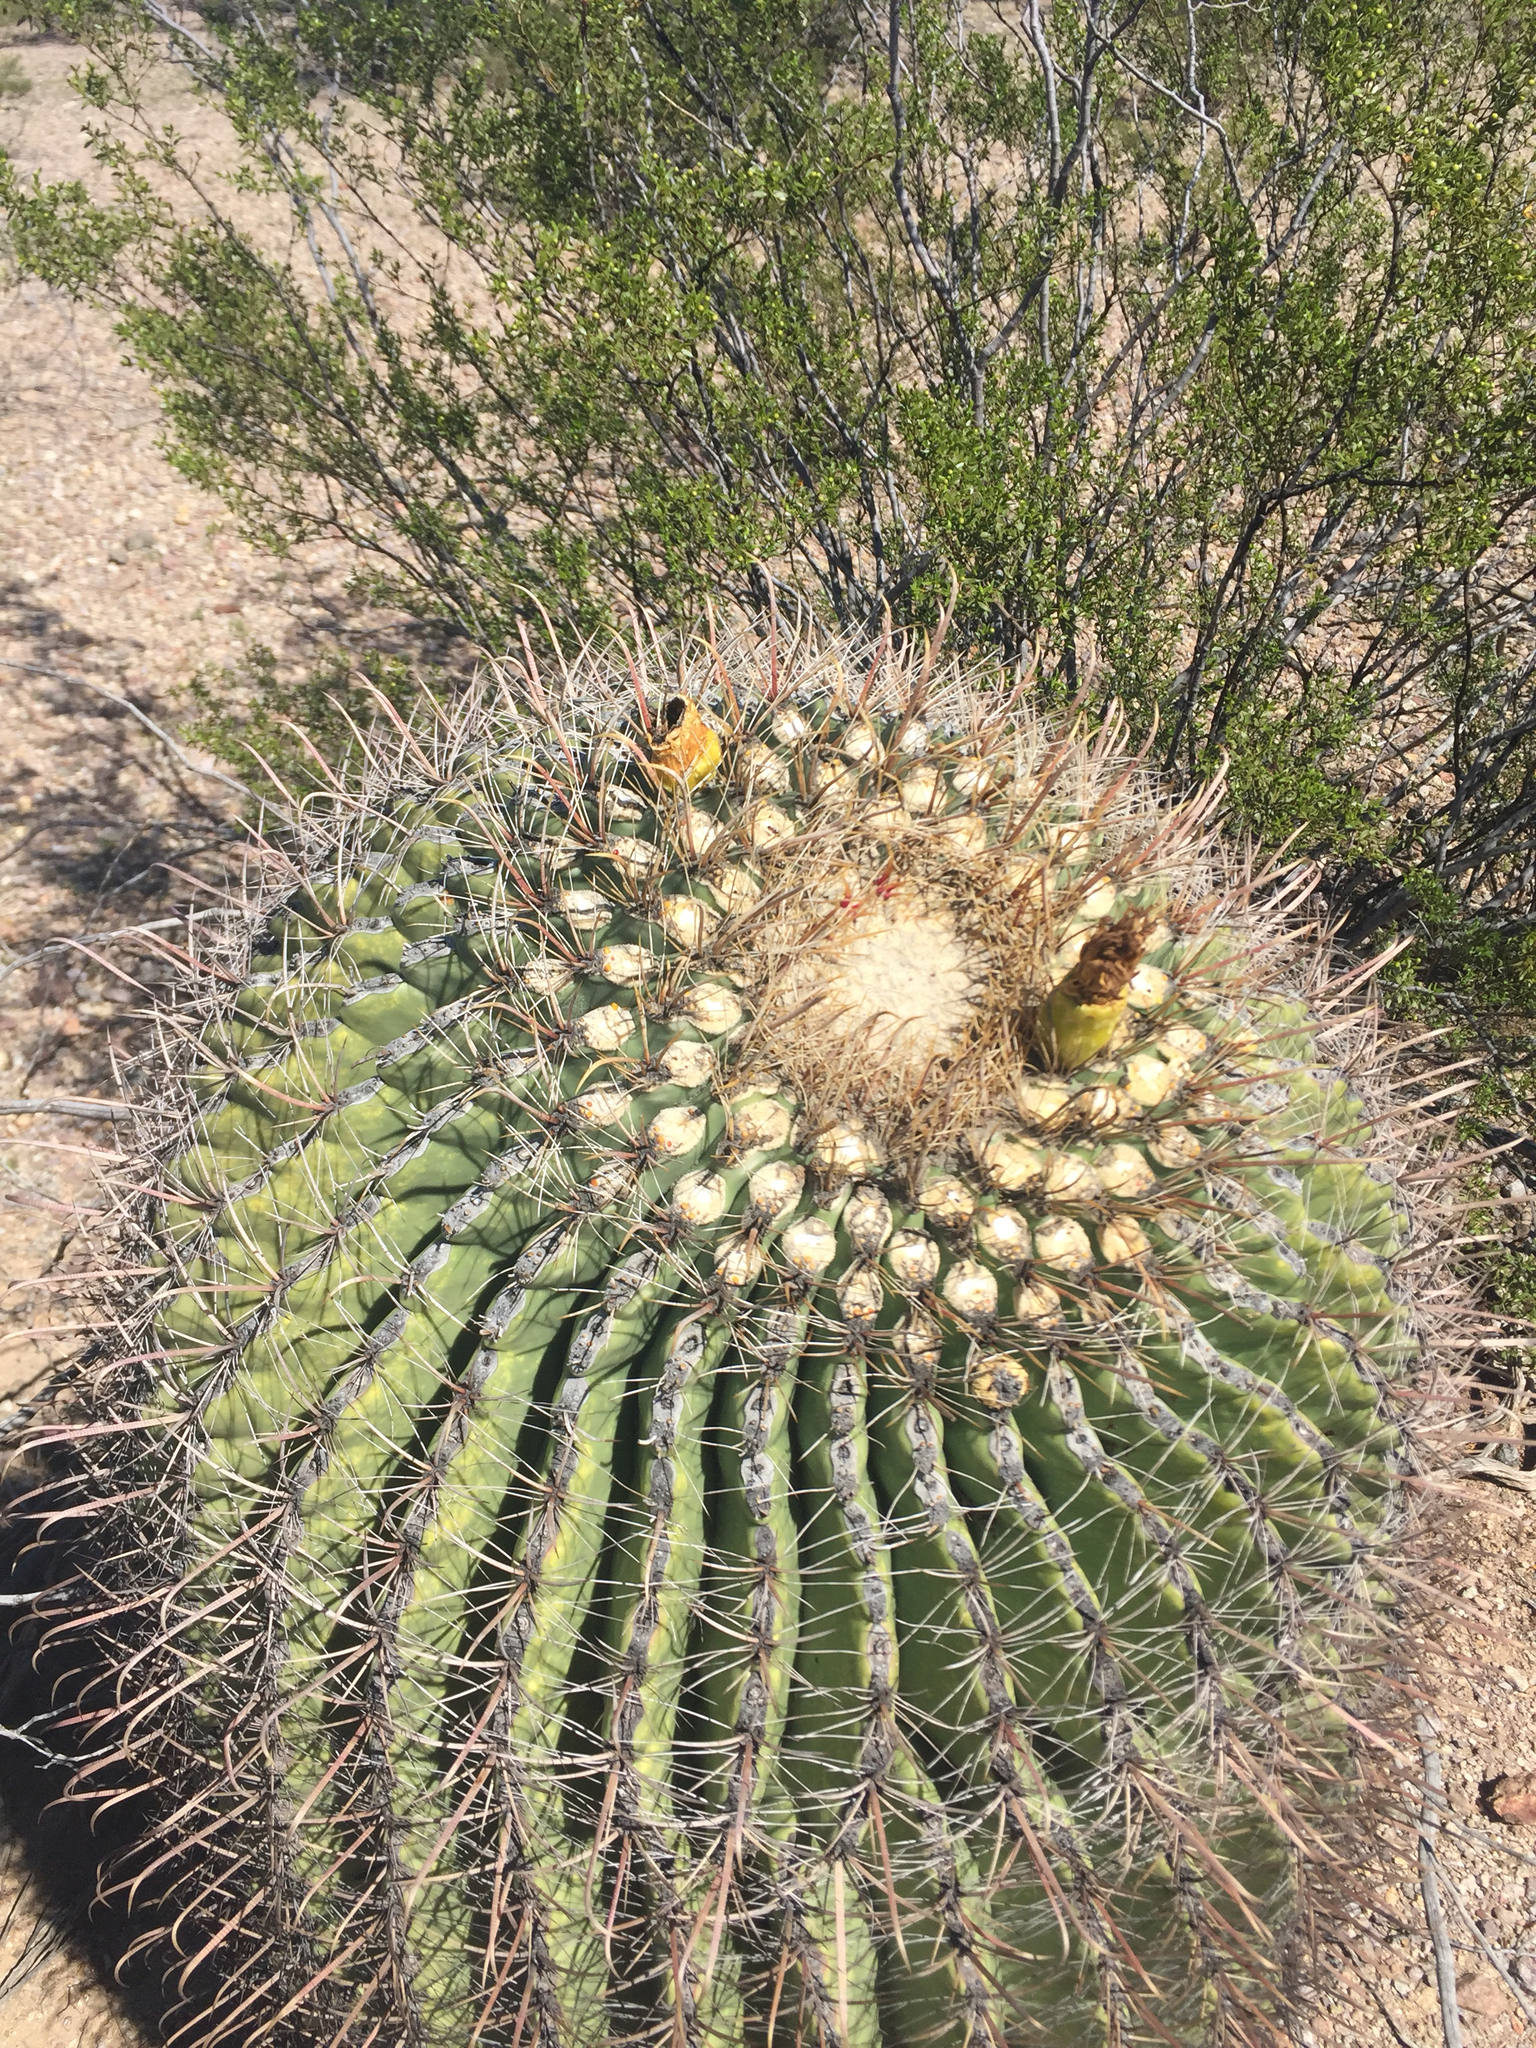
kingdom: Plantae
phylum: Tracheophyta
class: Magnoliopsida
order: Caryophyllales
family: Cactaceae
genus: Ferocactus
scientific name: Ferocactus wislizeni
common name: Candy barrel cactus
